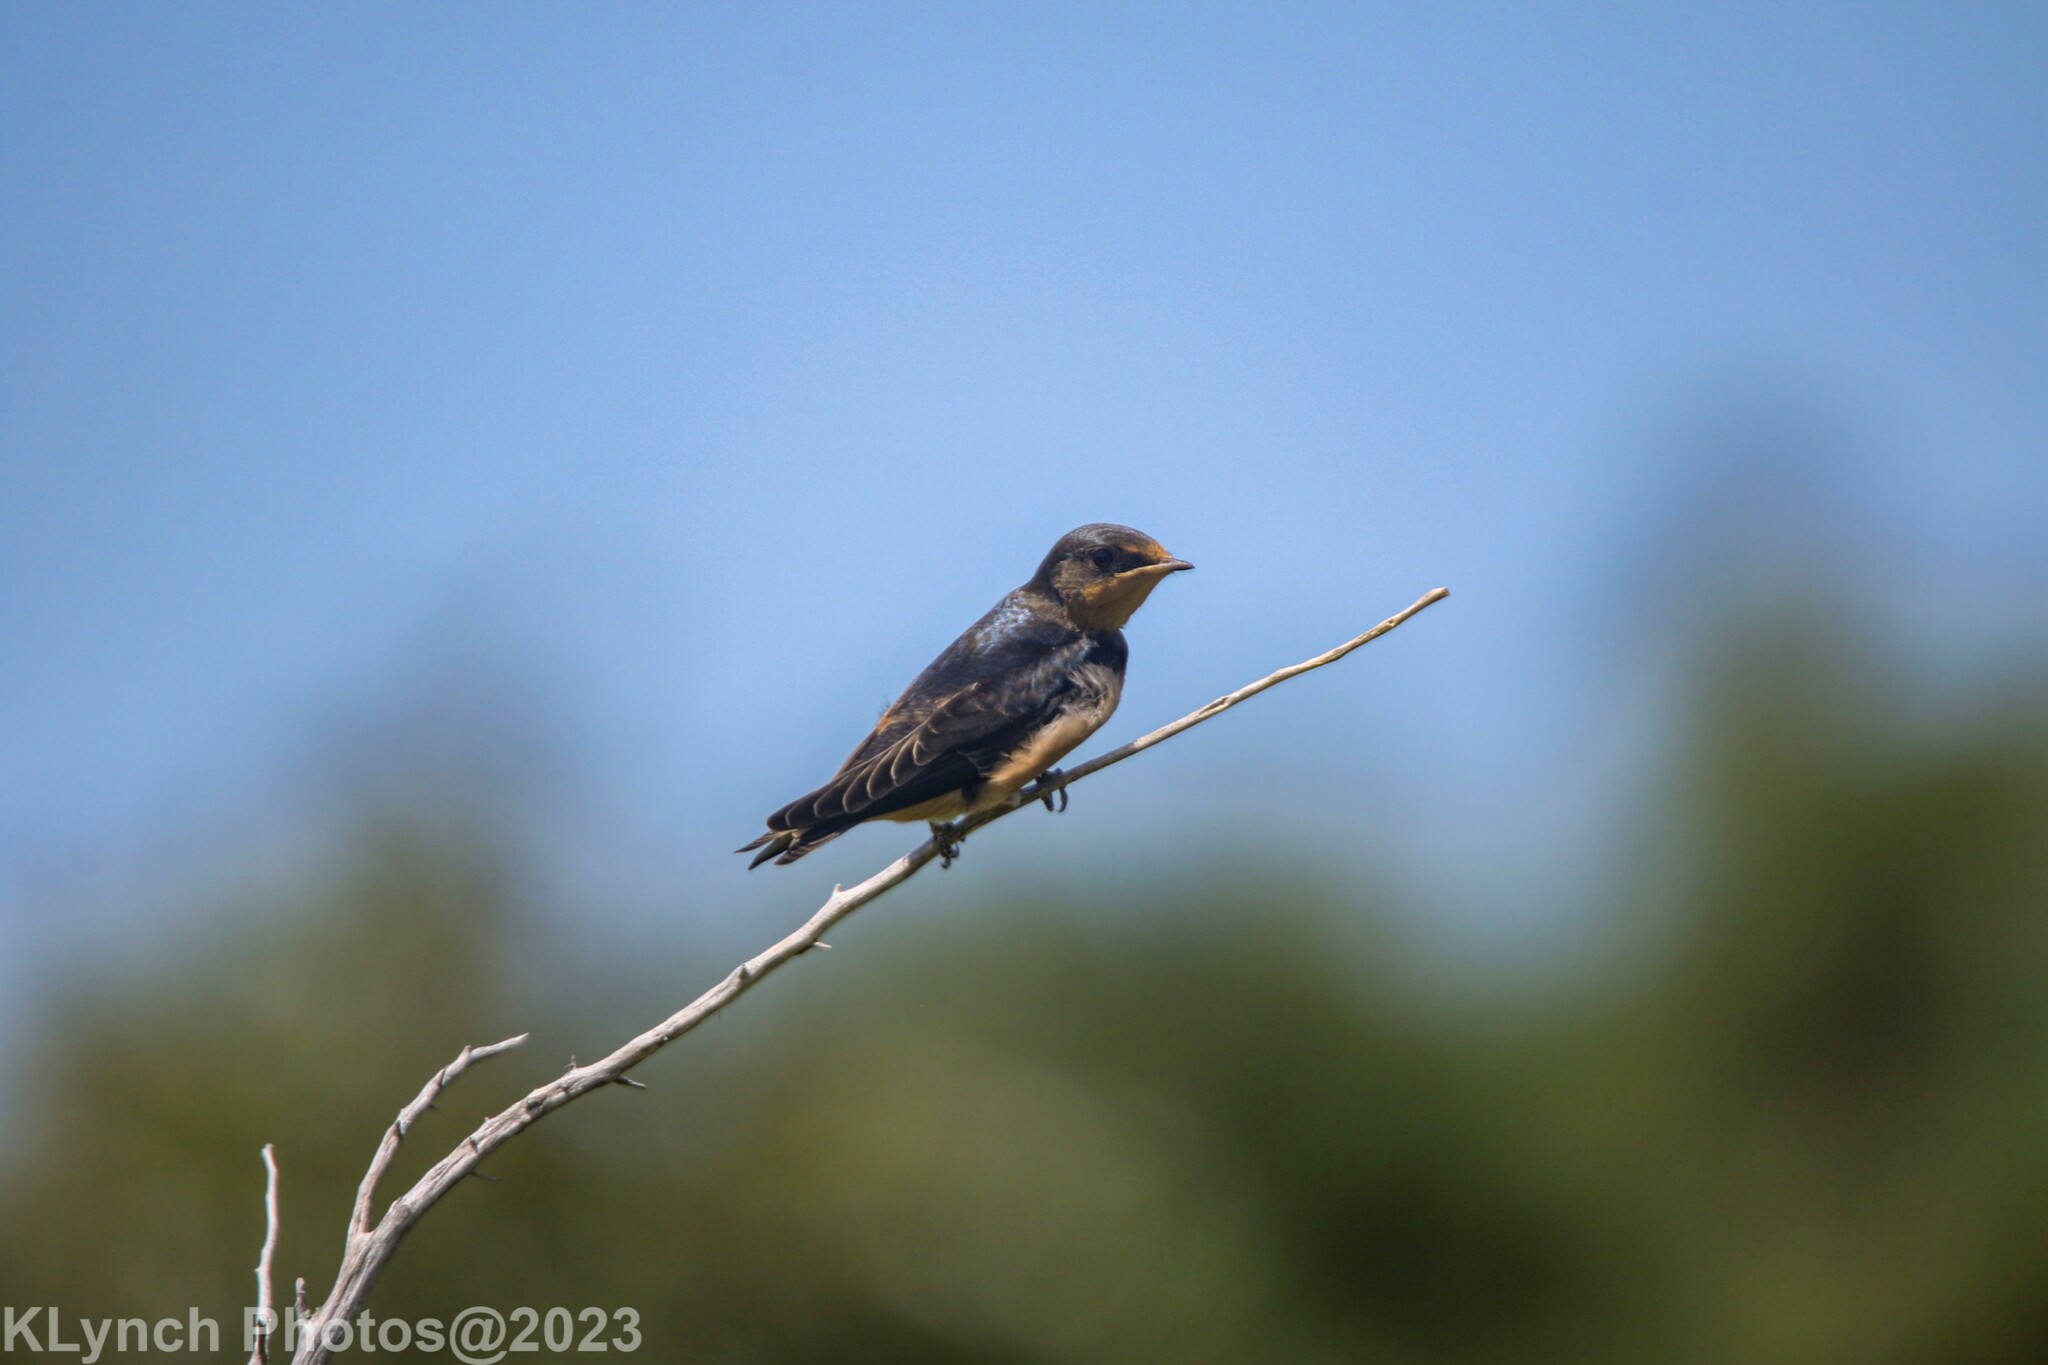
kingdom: Animalia
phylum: Chordata
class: Aves
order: Passeriformes
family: Hirundinidae
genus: Hirundo
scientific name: Hirundo rustica
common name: Barn swallow
